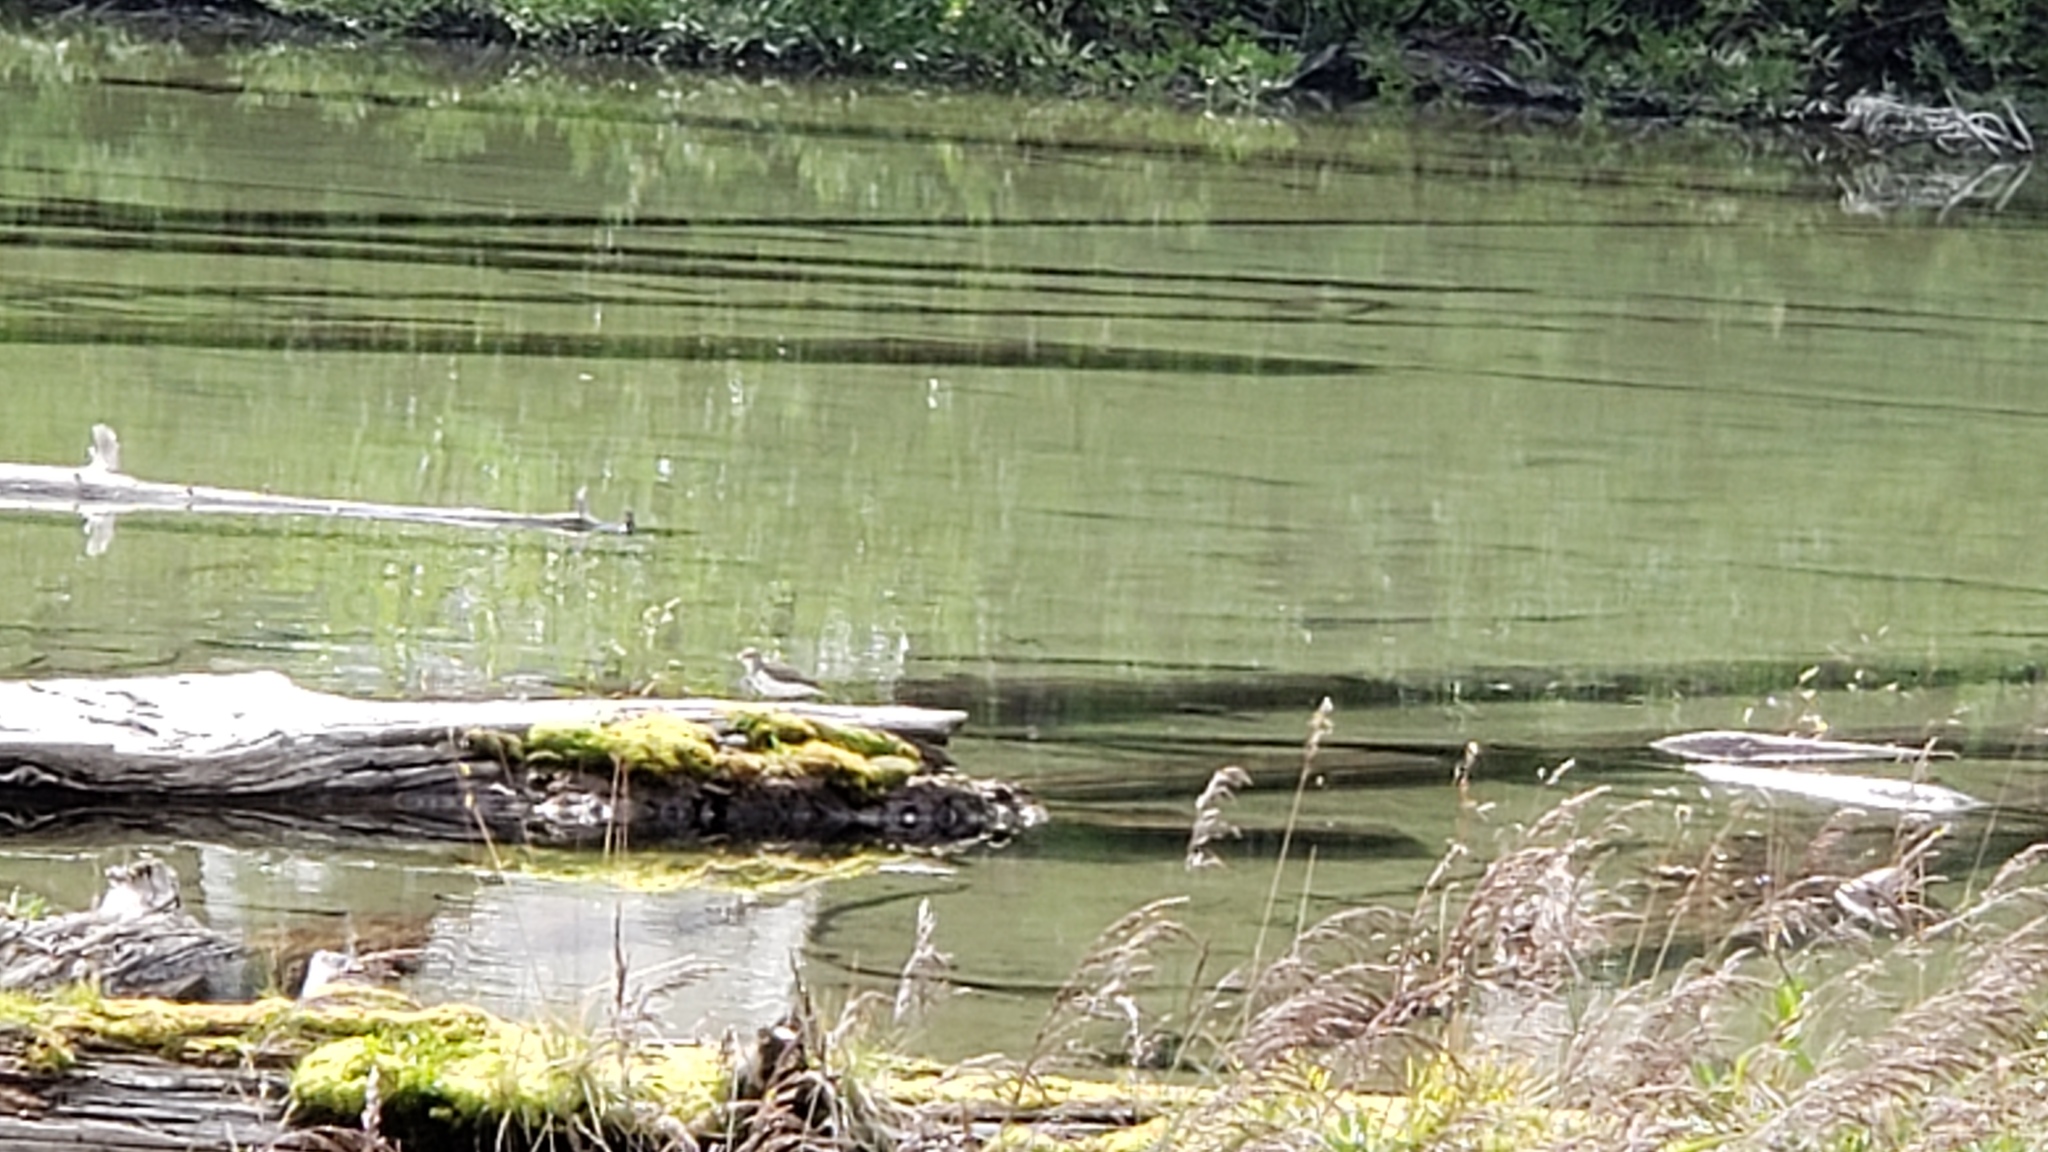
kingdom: Animalia
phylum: Chordata
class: Aves
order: Charadriiformes
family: Scolopacidae
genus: Actitis
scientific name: Actitis macularius
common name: Spotted sandpiper
